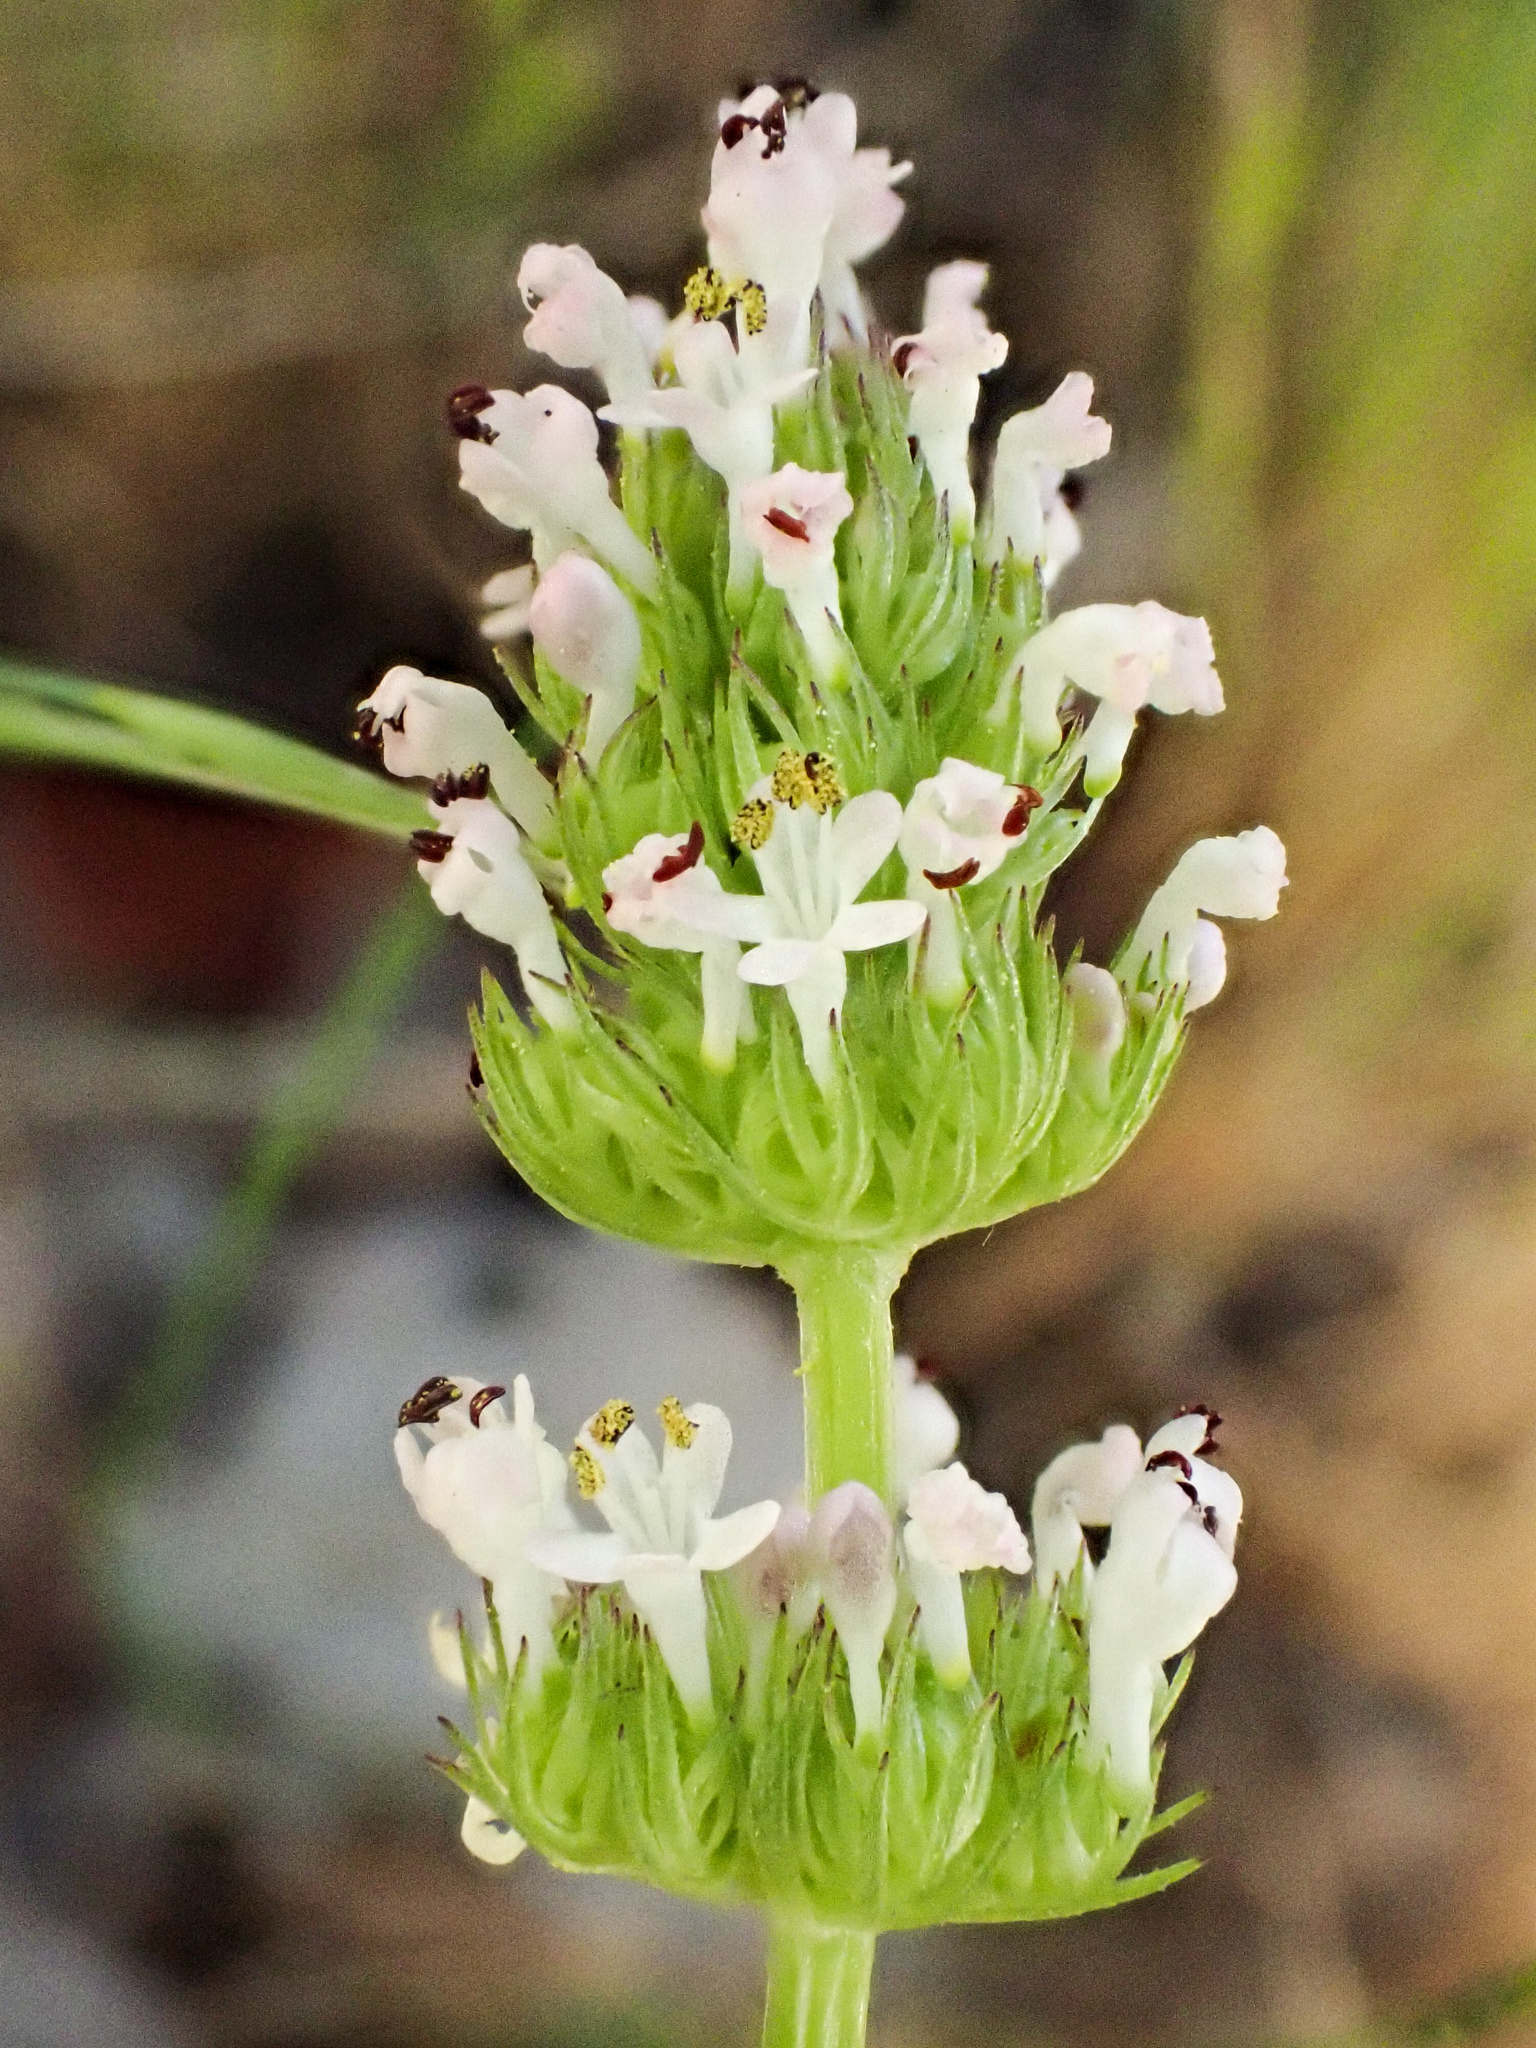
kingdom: Plantae
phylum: Tracheophyta
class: Magnoliopsida
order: Dipsacales
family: Caprifoliaceae
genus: Plectritis
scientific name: Plectritis macroptera
